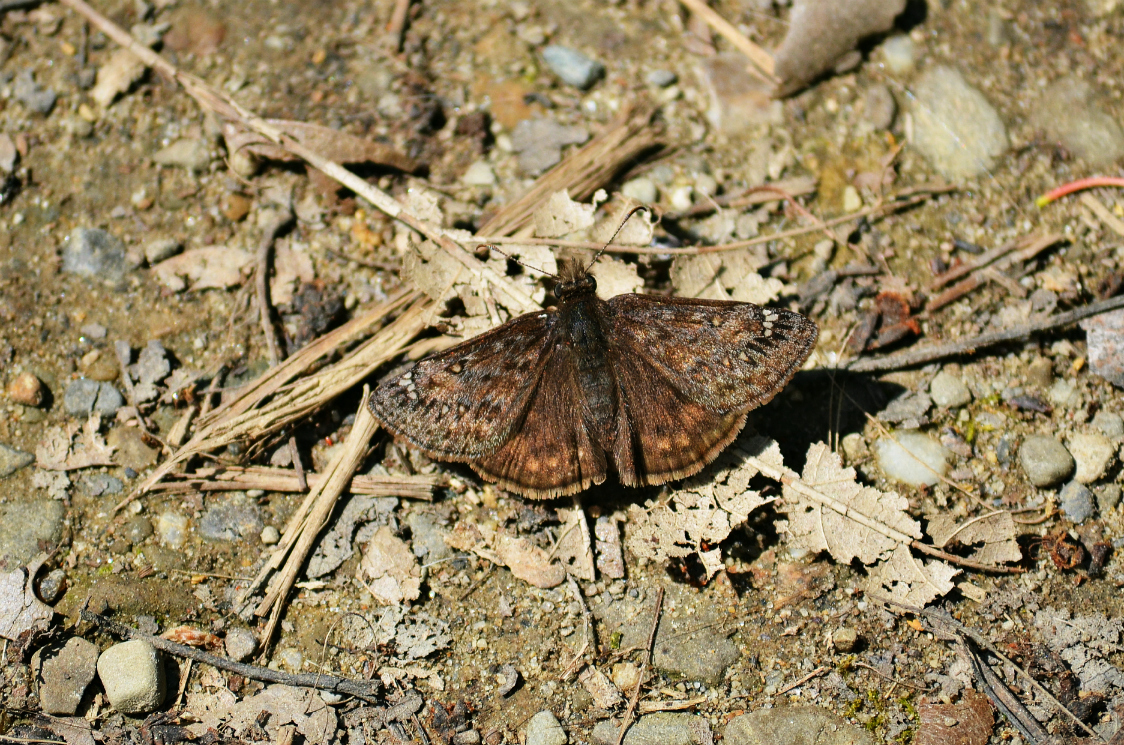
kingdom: Animalia
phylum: Arthropoda
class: Insecta
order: Lepidoptera
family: Hesperiidae
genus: Erynnis
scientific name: Erynnis juvenalis
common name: Juvenal's duskywing
